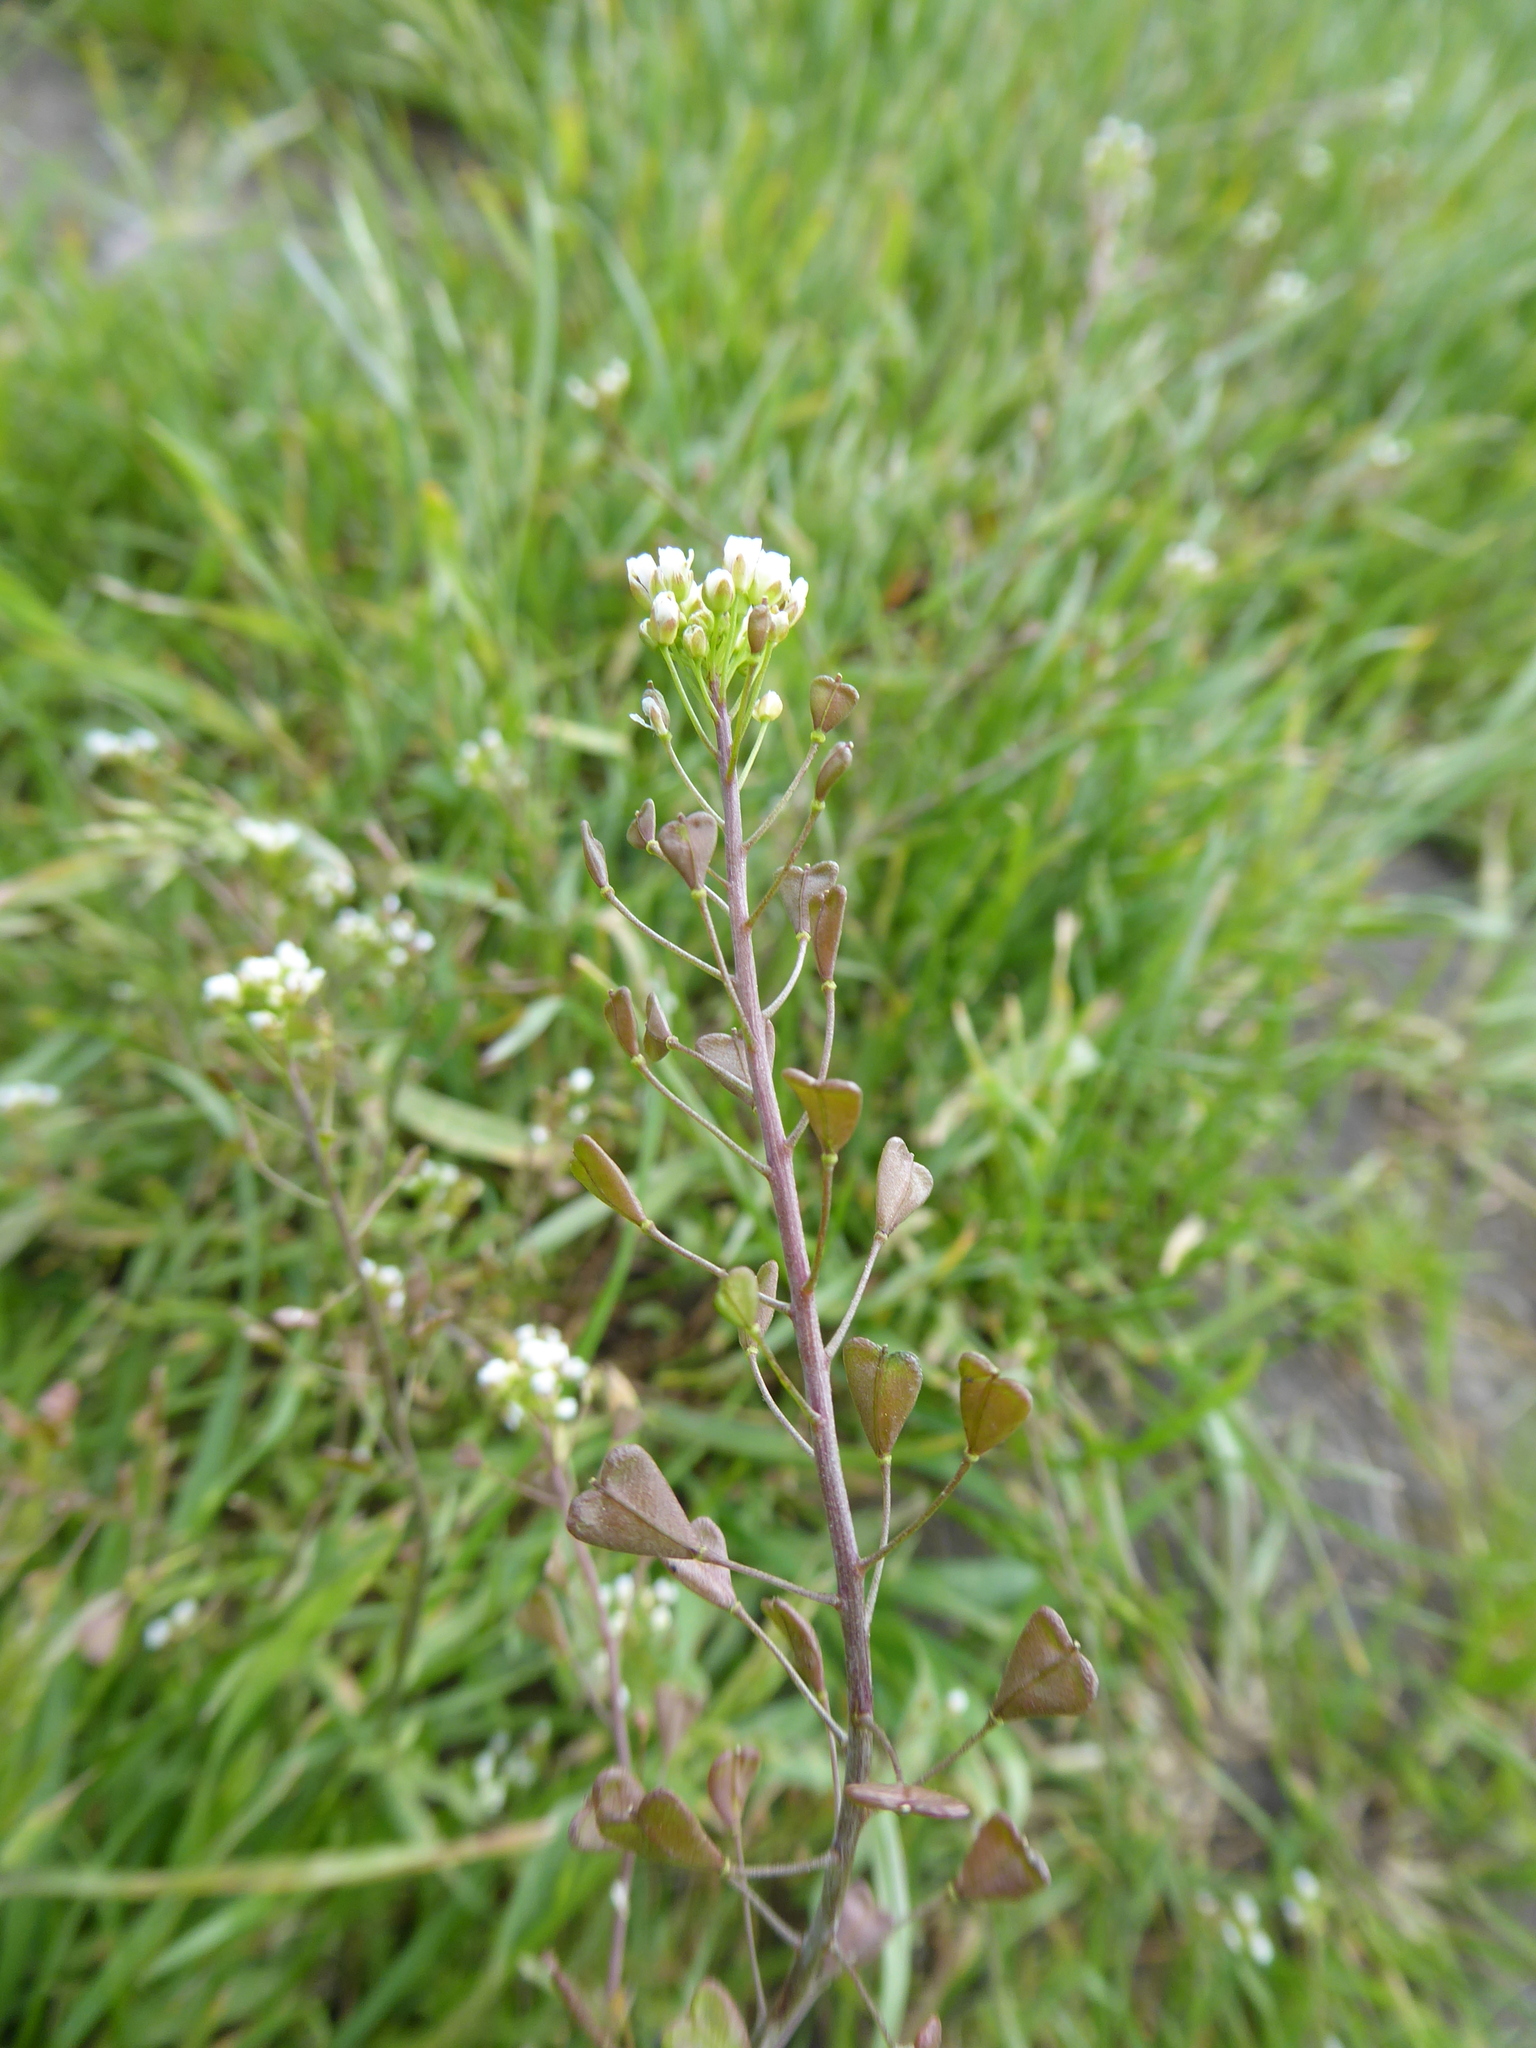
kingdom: Plantae
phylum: Tracheophyta
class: Magnoliopsida
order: Brassicales
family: Brassicaceae
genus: Capsella
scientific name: Capsella bursa-pastoris
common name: Shepherd's purse
